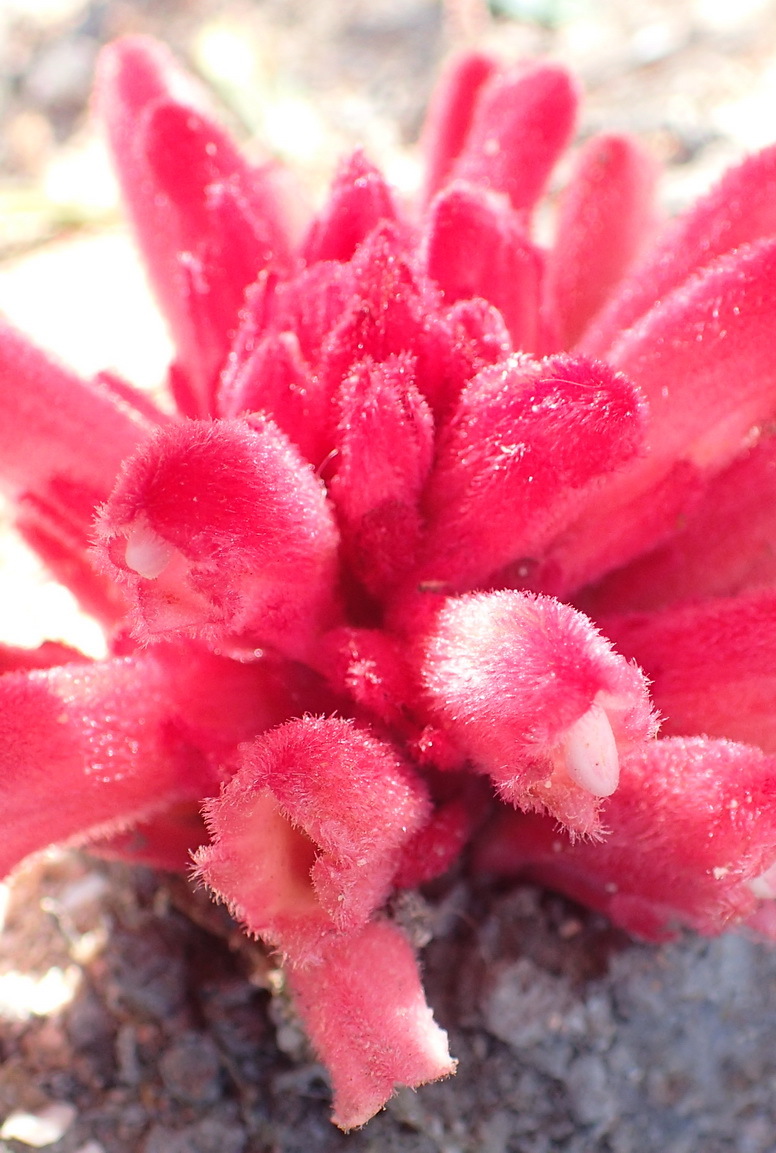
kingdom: Plantae
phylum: Tracheophyta
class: Magnoliopsida
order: Lamiales
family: Orobanchaceae
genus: Hyobanche
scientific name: Hyobanche sanguinea
